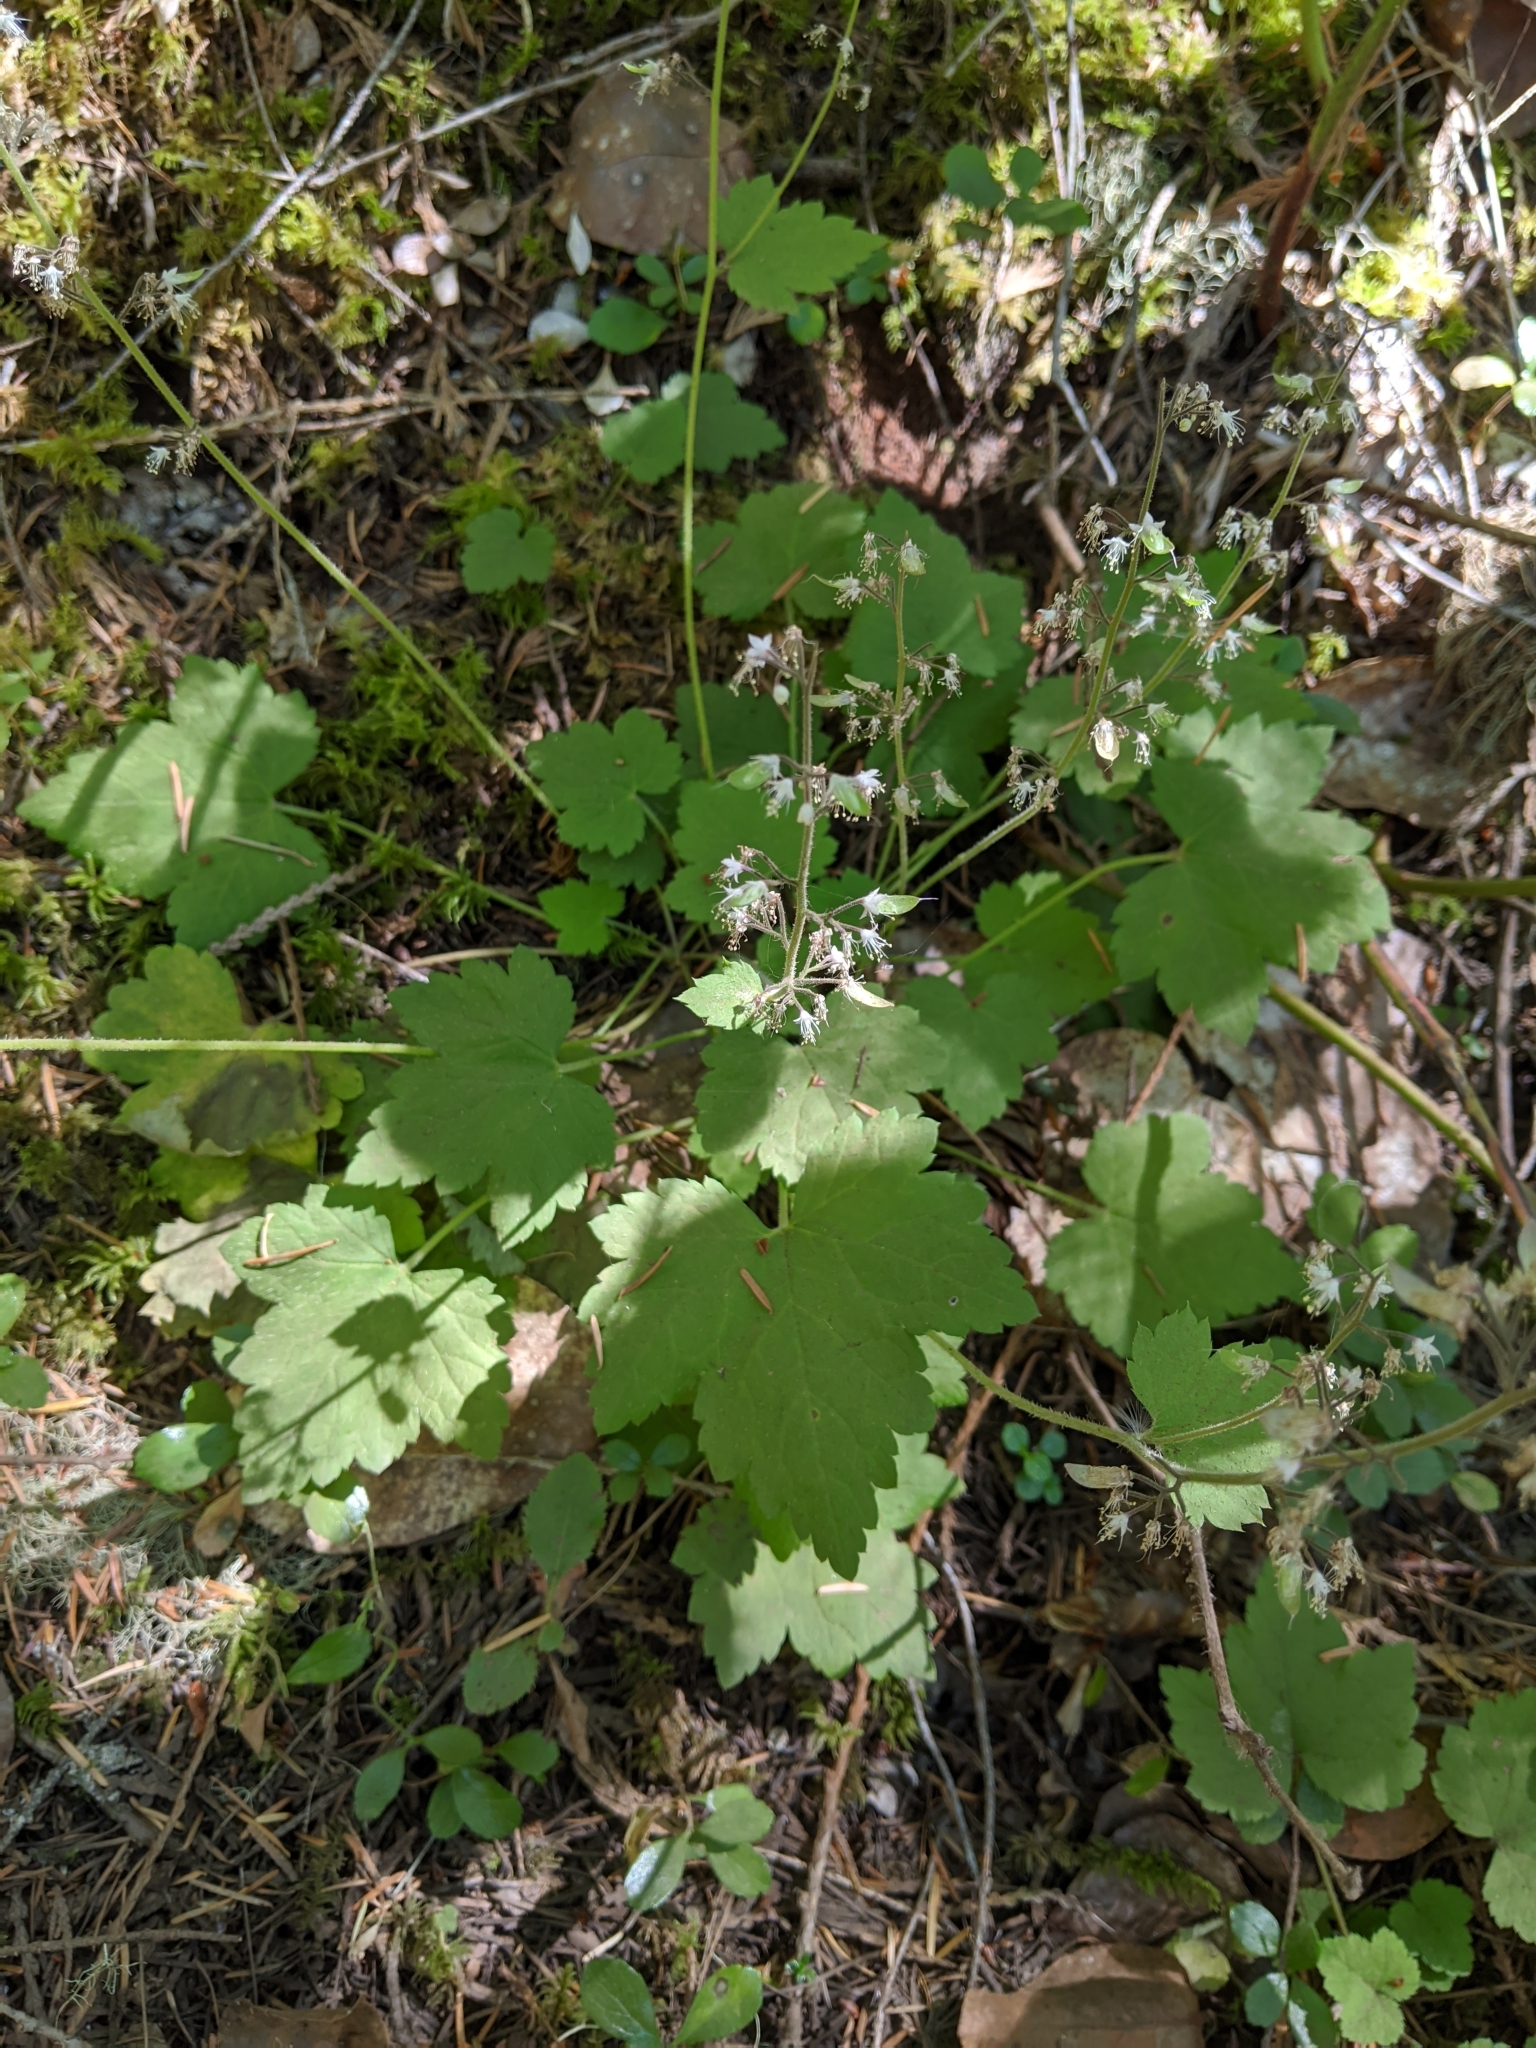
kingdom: Plantae
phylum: Tracheophyta
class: Magnoliopsida
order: Saxifragales
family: Saxifragaceae
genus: Tiarella
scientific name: Tiarella trifoliata
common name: Sugar-scoop
